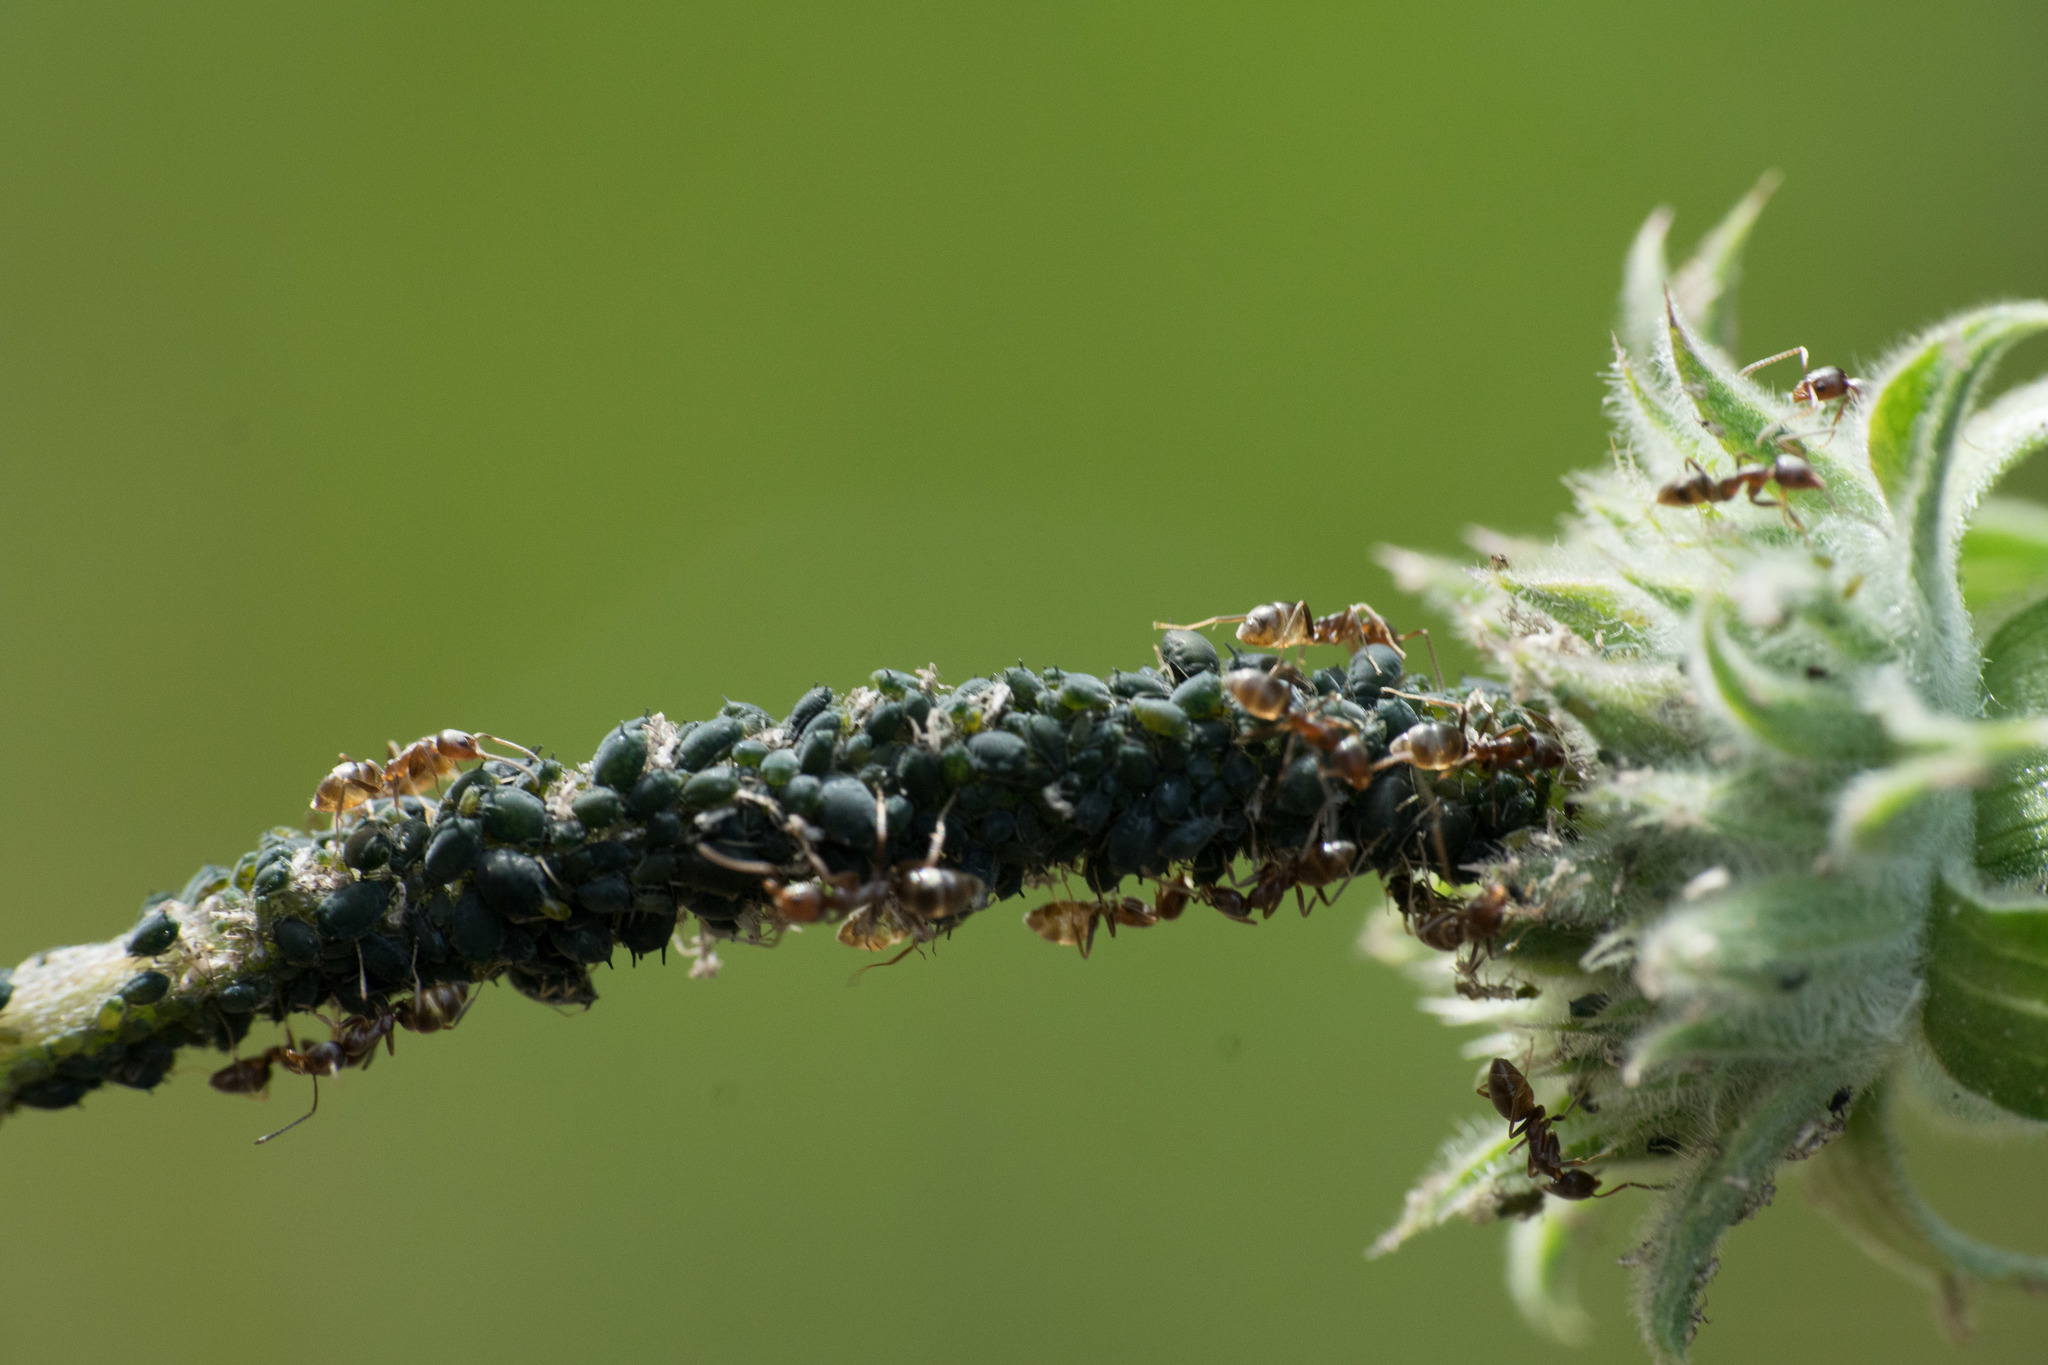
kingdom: Animalia
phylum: Arthropoda
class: Insecta
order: Hymenoptera
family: Formicidae
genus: Linepithema
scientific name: Linepithema humile
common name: Argentine ant
